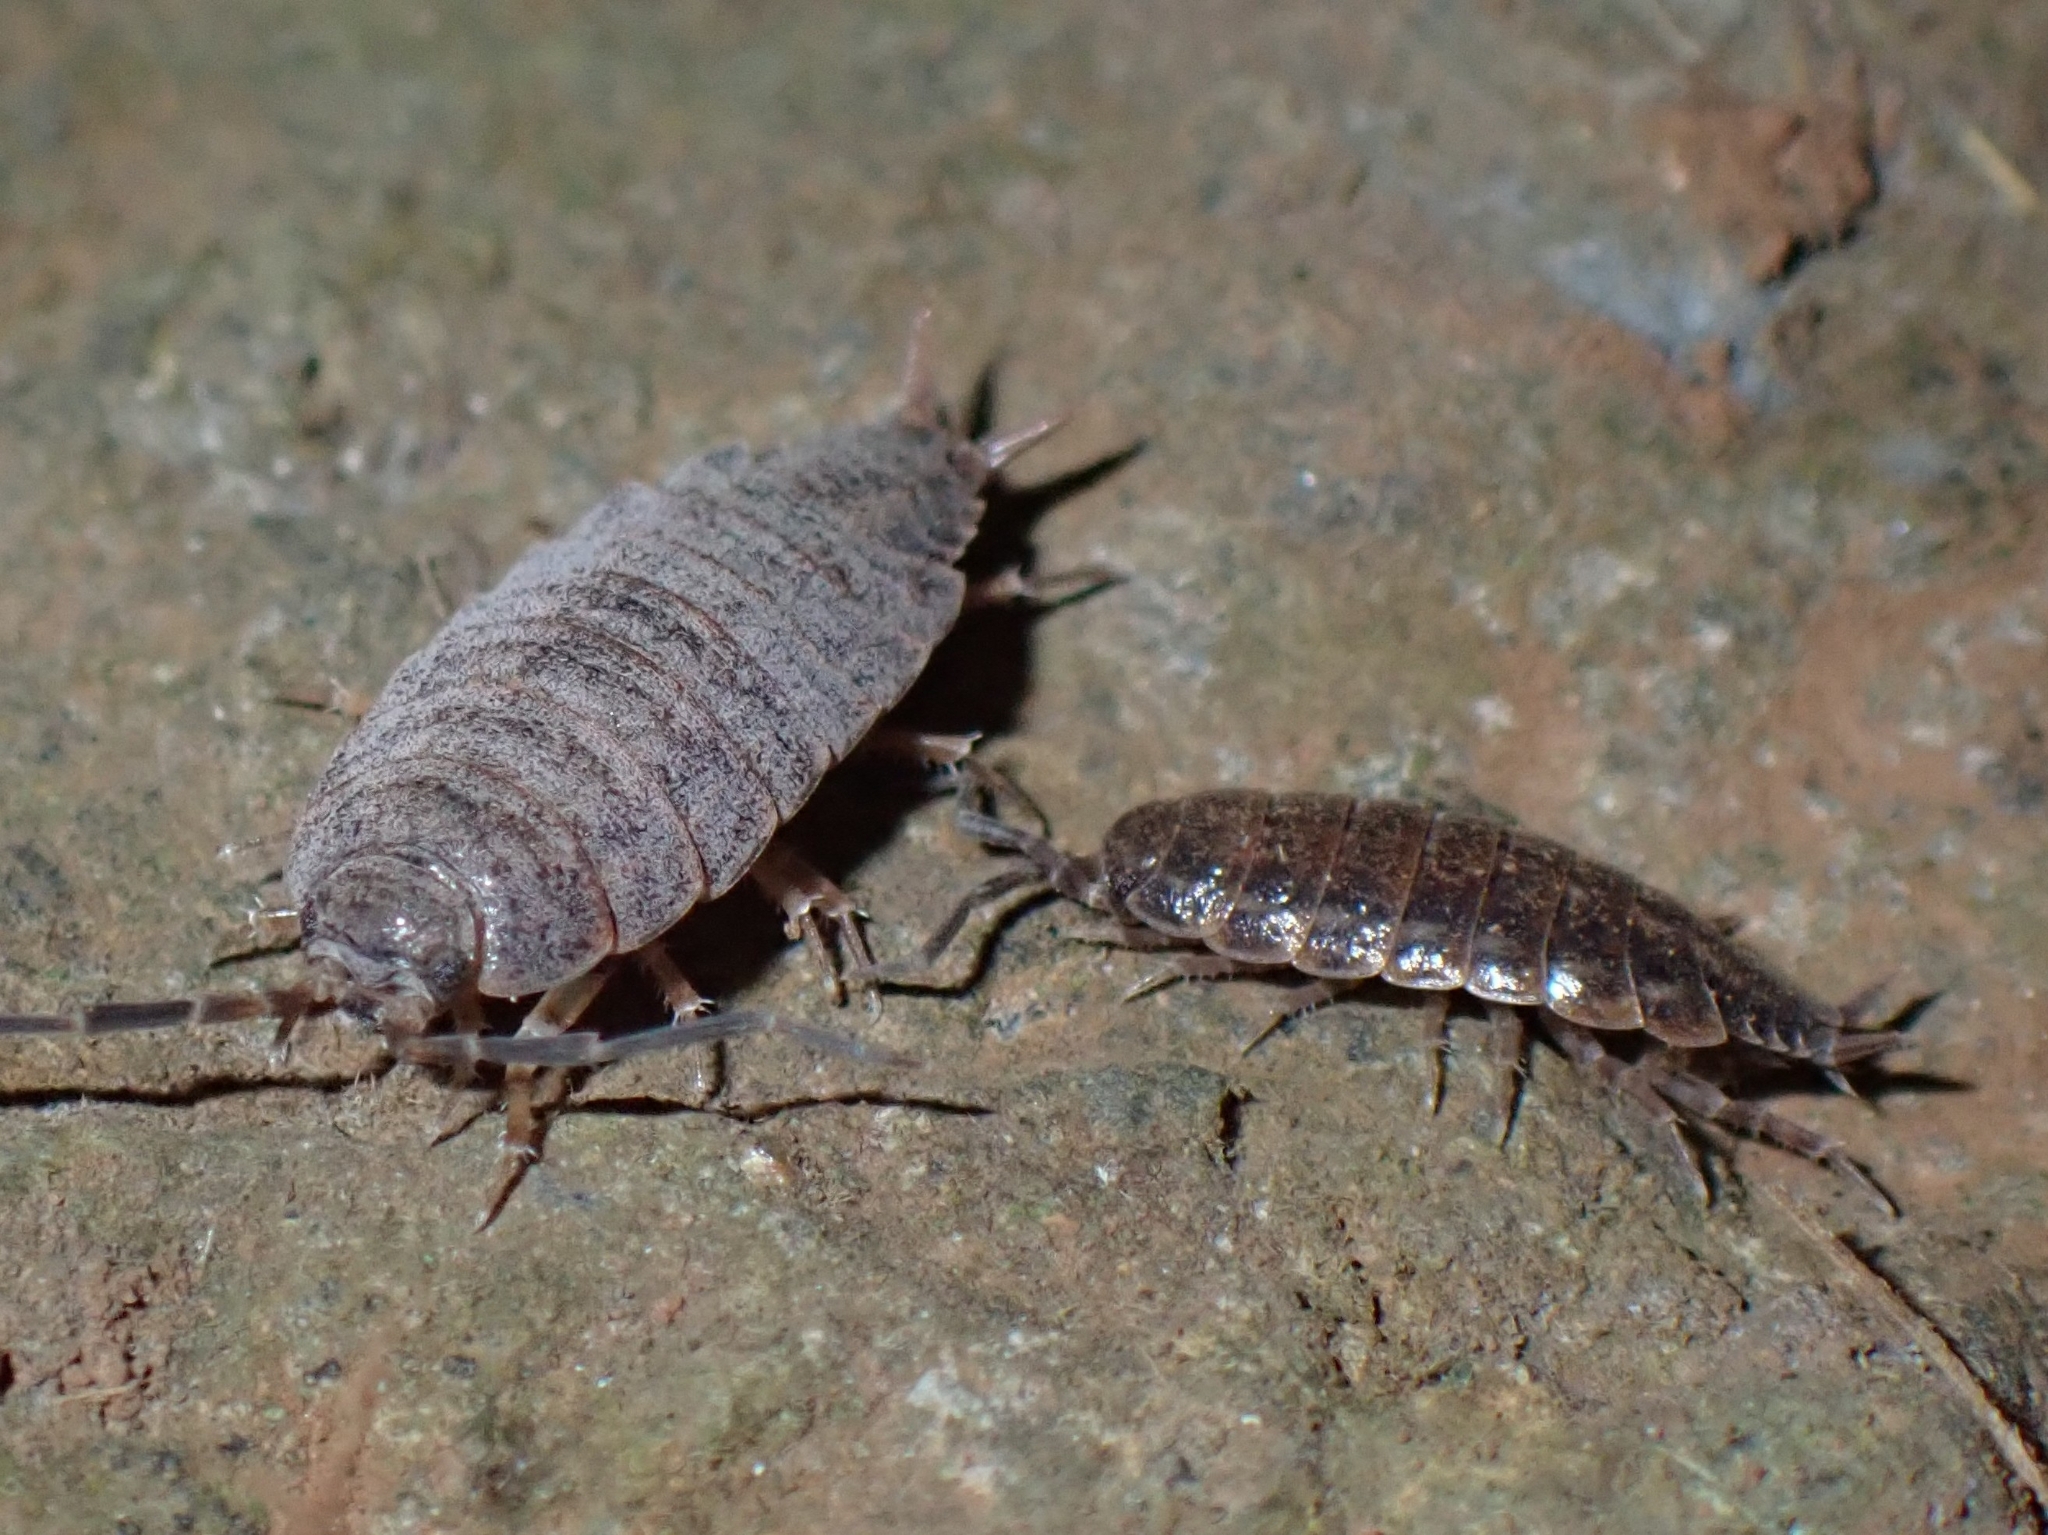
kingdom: Animalia
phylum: Arthropoda
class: Malacostraca
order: Isopoda
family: Porcellionidae
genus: Porcellionides
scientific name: Porcellionides sexfasciatus
